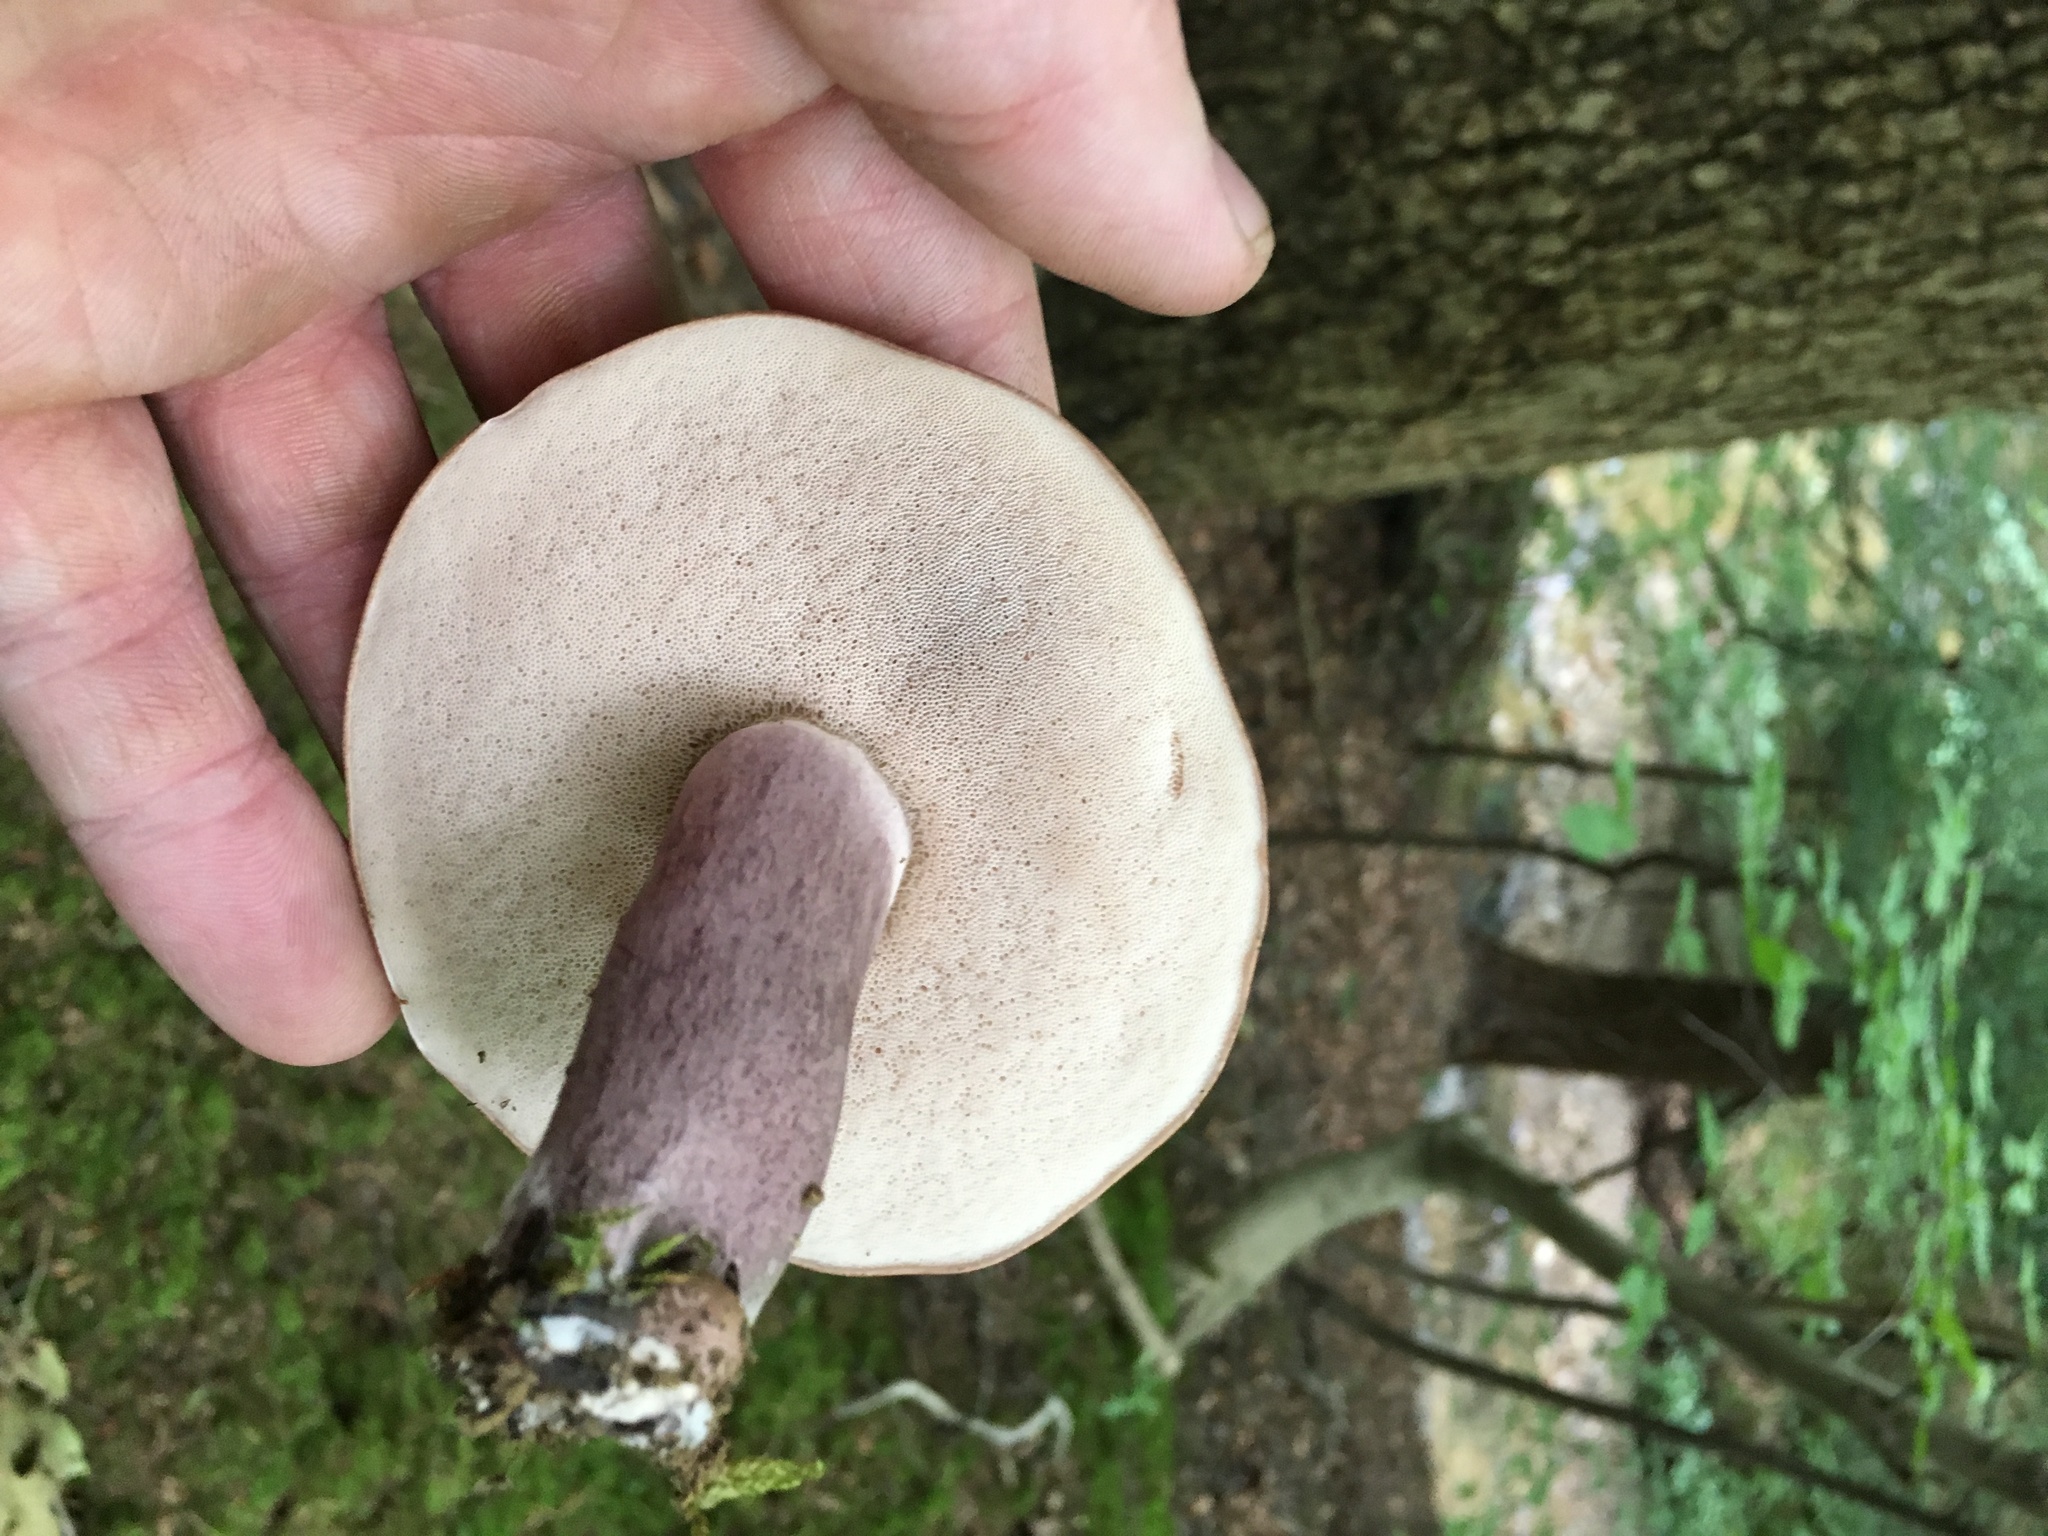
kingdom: Fungi
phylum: Basidiomycota
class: Agaricomycetes
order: Boletales
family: Boletaceae
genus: Tylopilus
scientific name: Tylopilus plumbeoviolaceus
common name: Violet gray bolete
